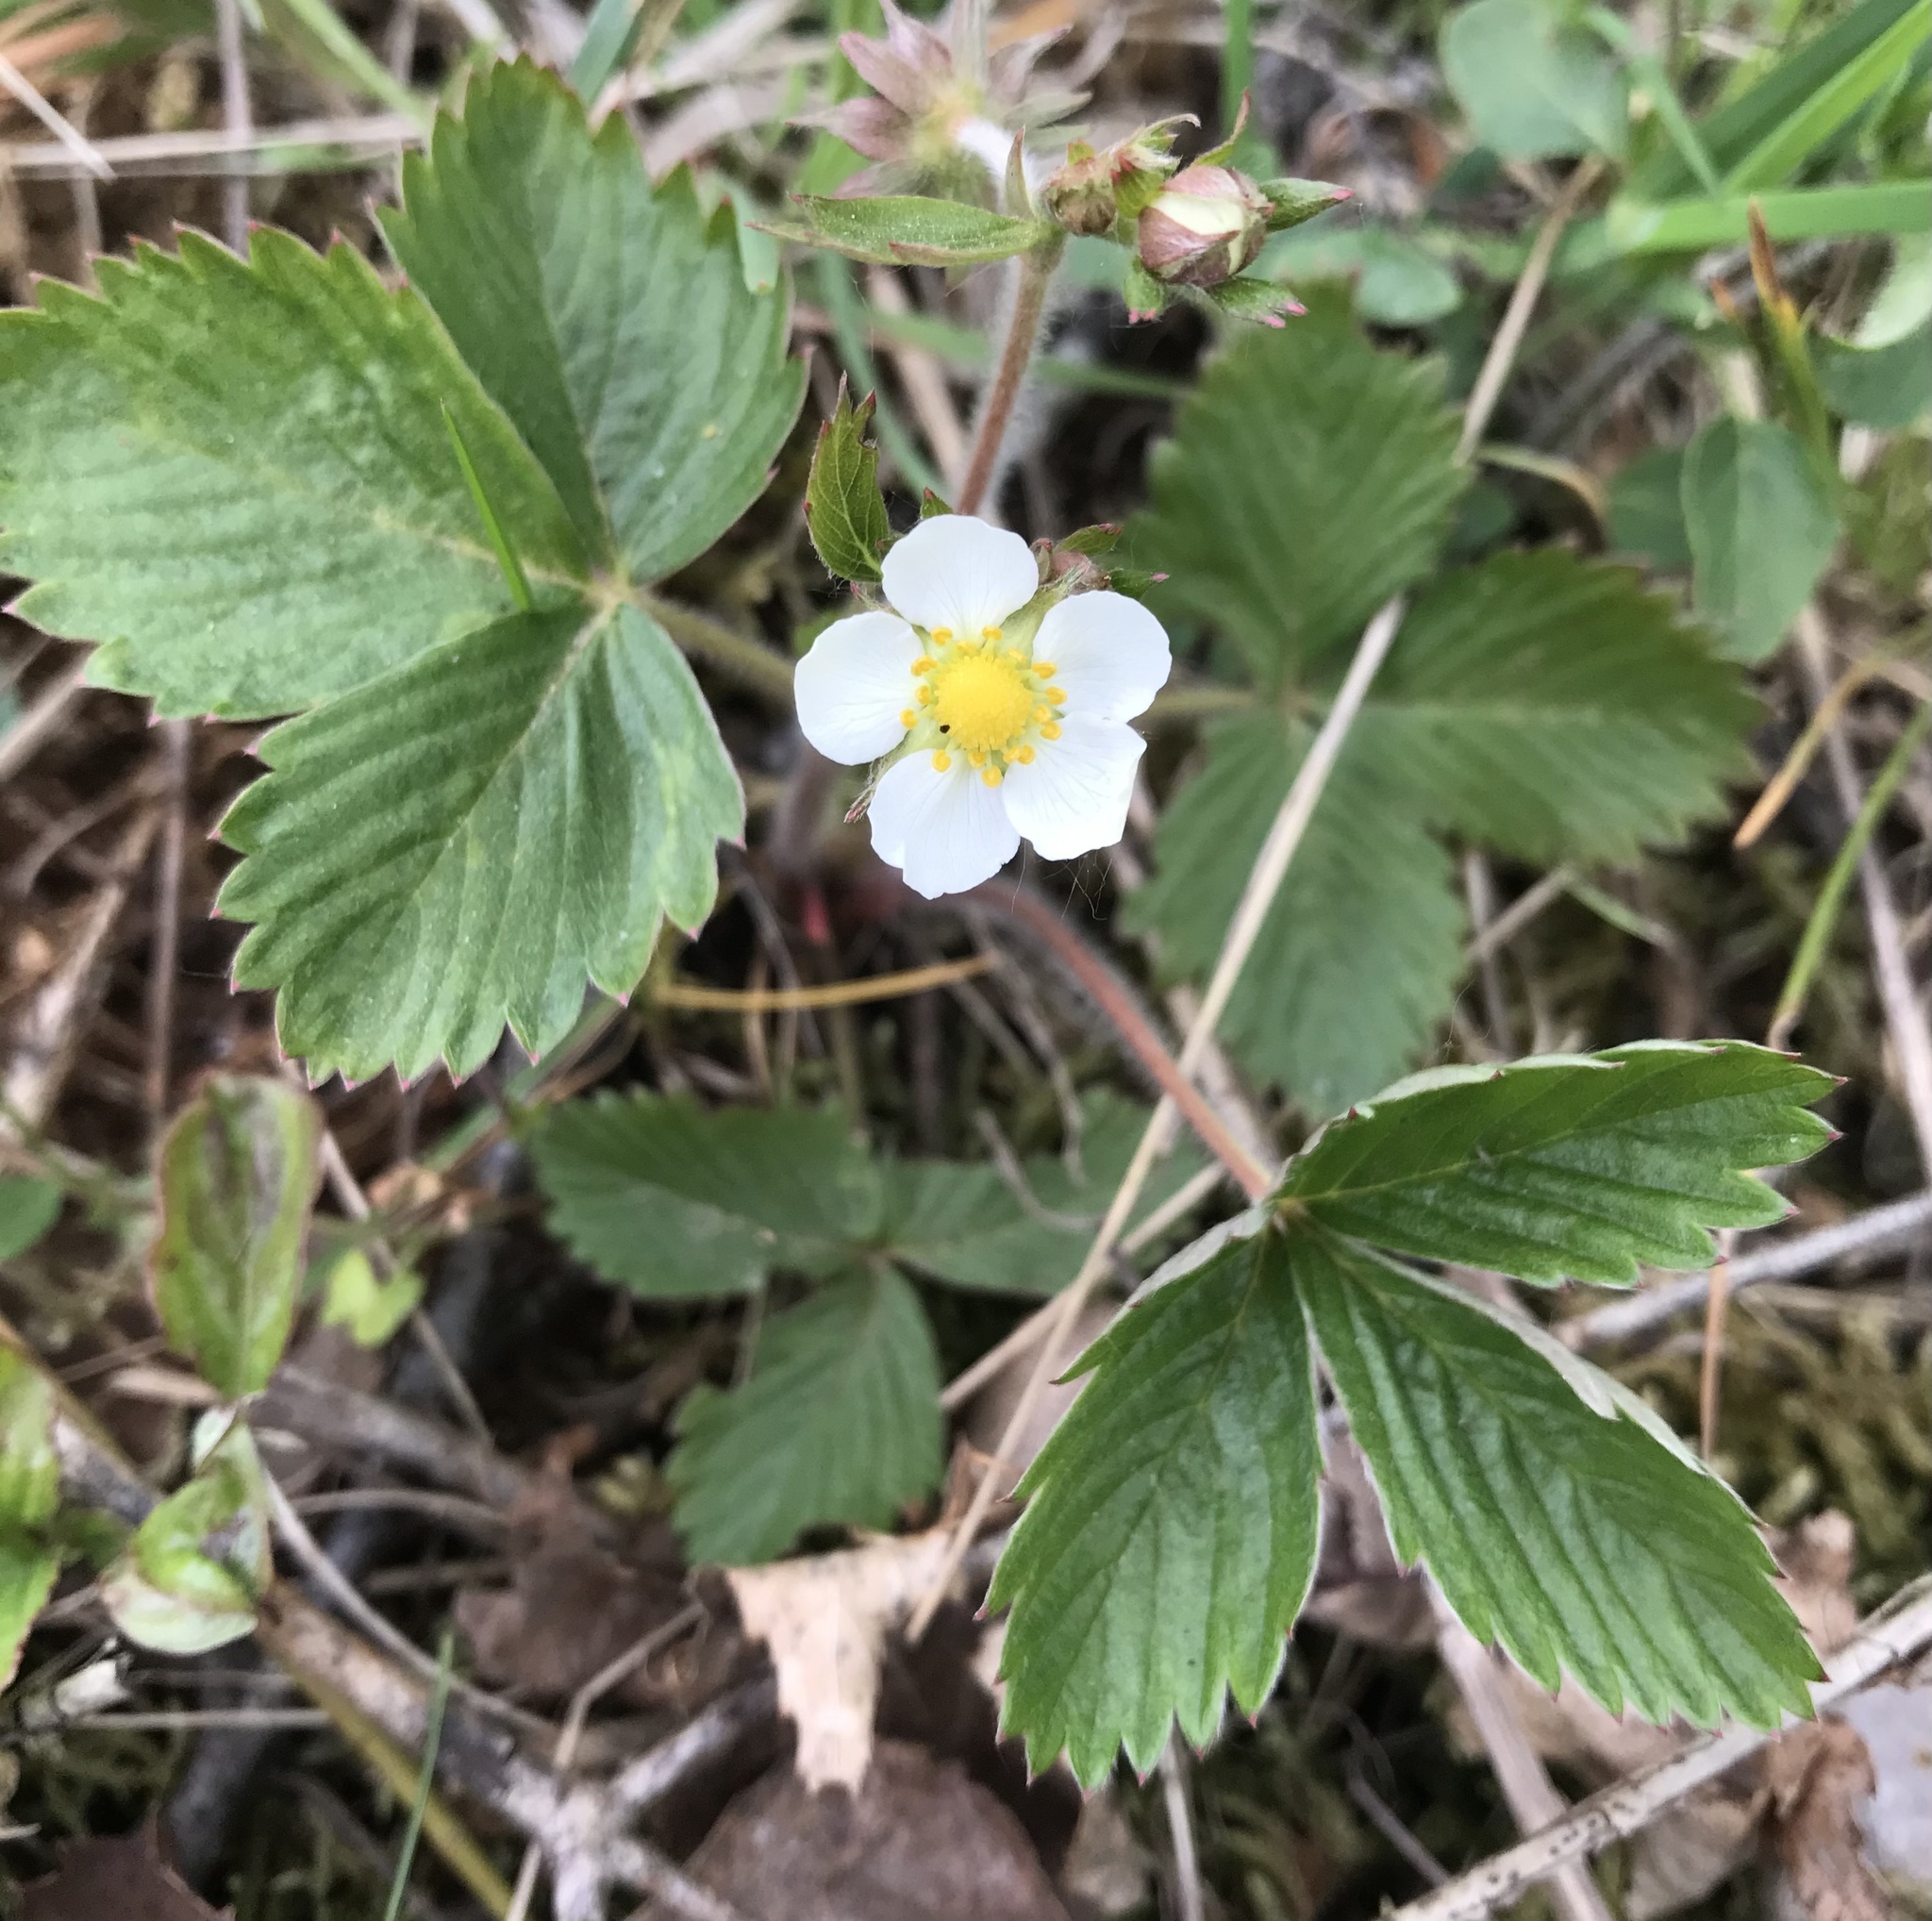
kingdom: Plantae
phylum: Tracheophyta
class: Magnoliopsida
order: Rosales
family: Rosaceae
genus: Fragaria
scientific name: Fragaria vesca
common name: Wild strawberry
